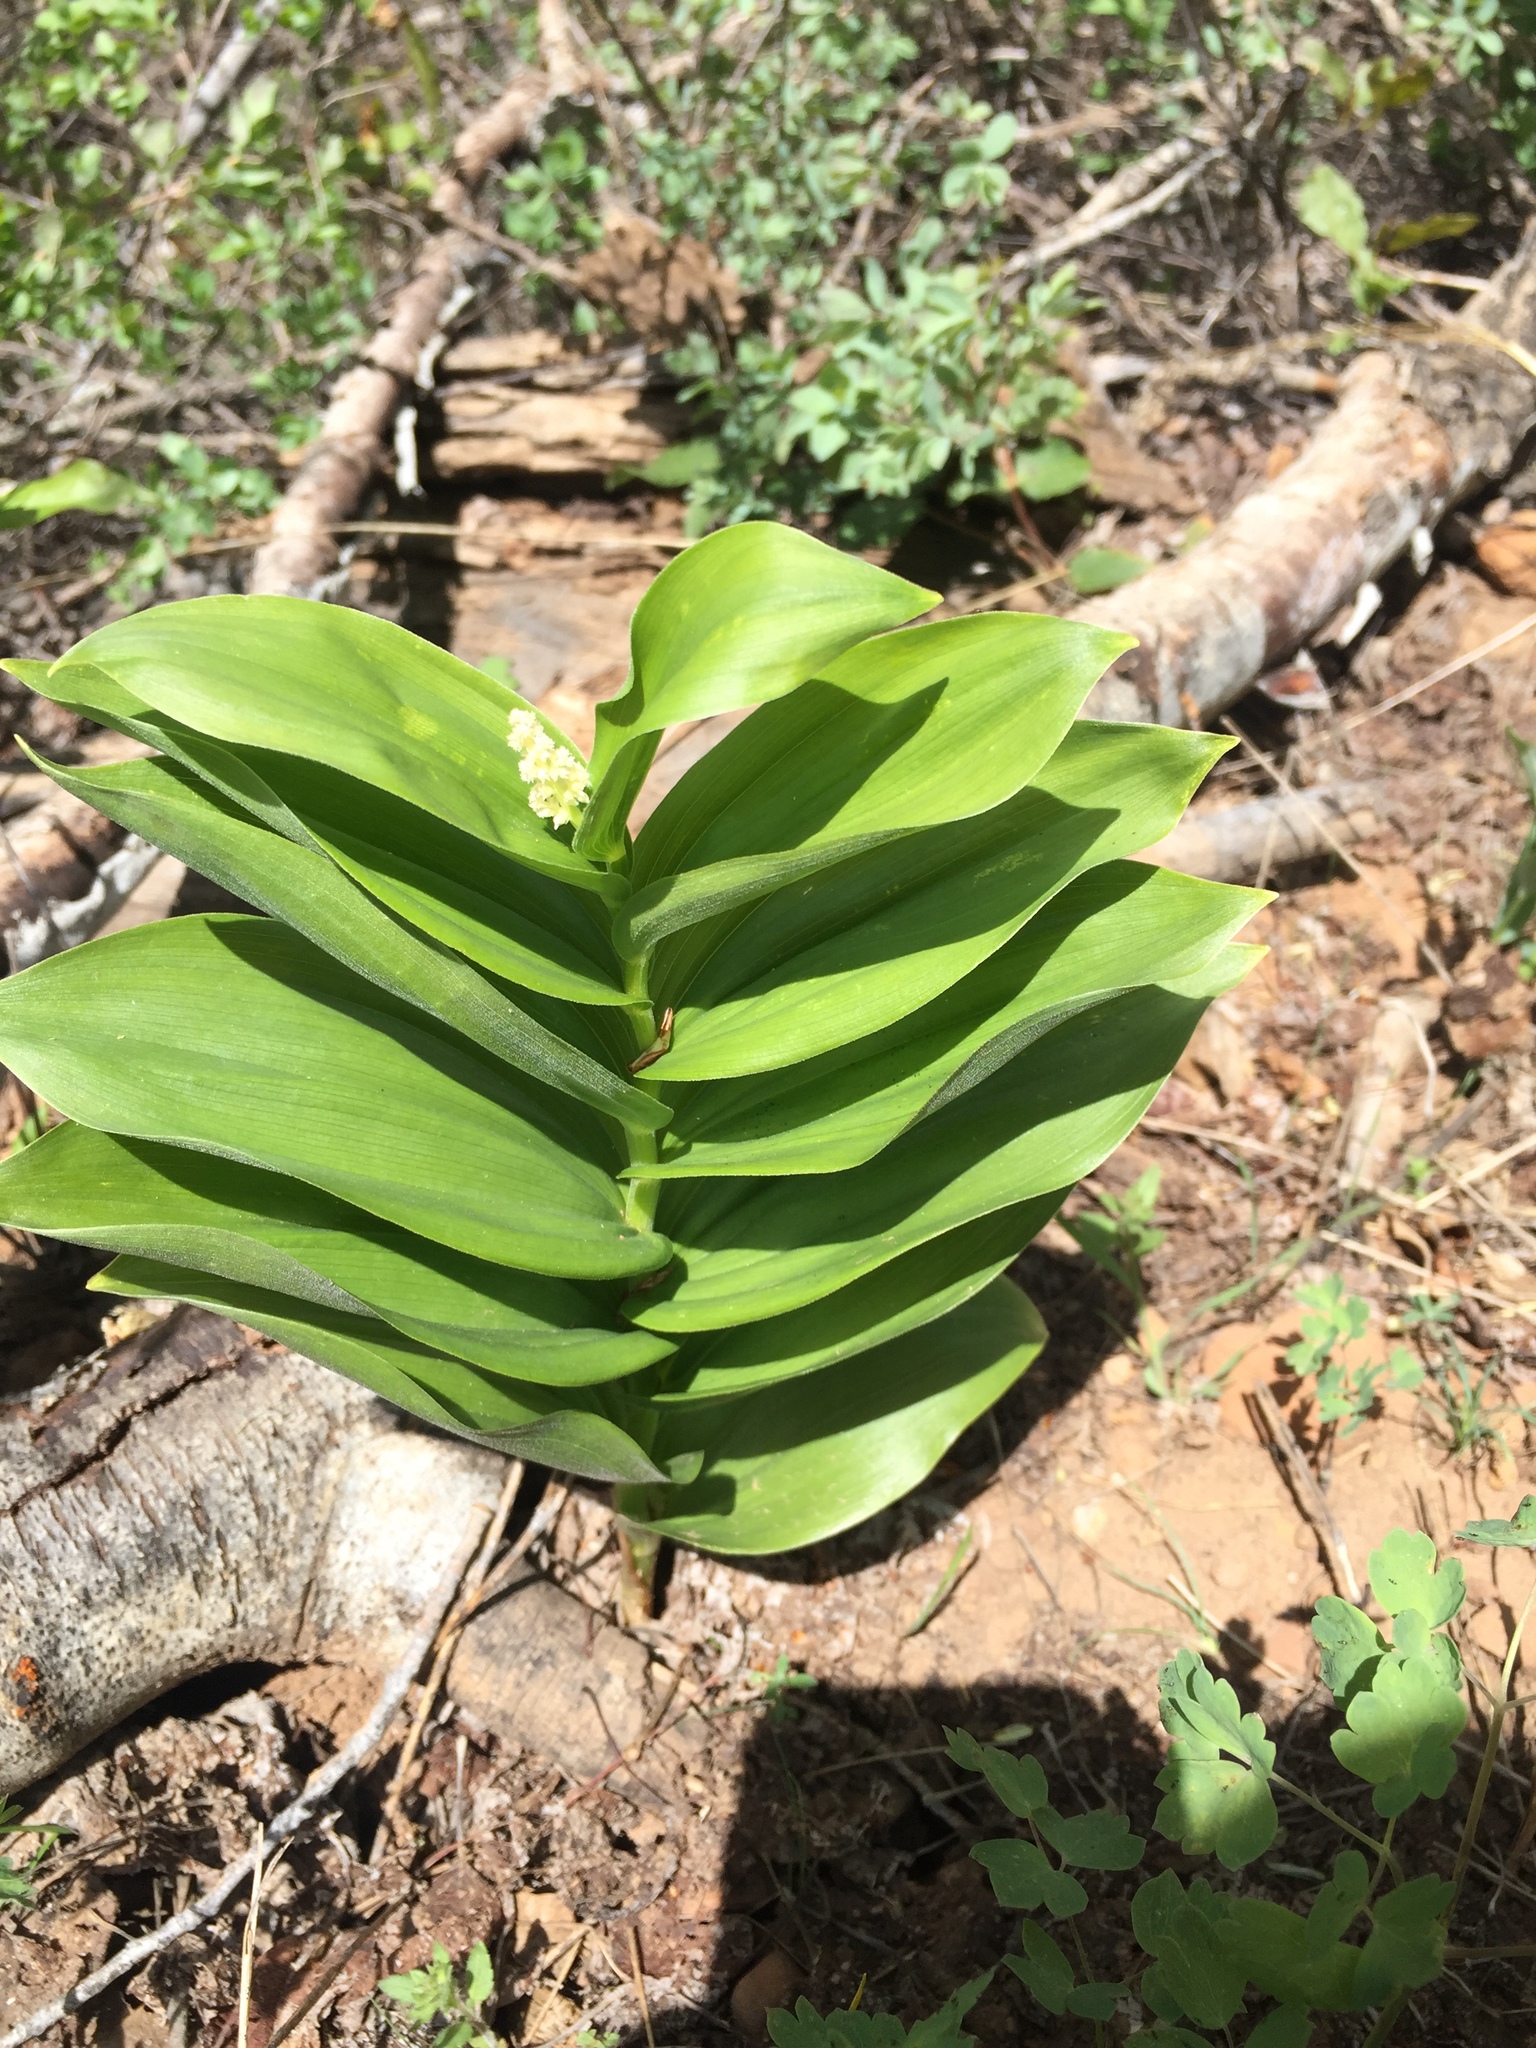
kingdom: Plantae
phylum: Tracheophyta
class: Liliopsida
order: Asparagales
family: Asparagaceae
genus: Maianthemum
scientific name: Maianthemum racemosum
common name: False spikenard
